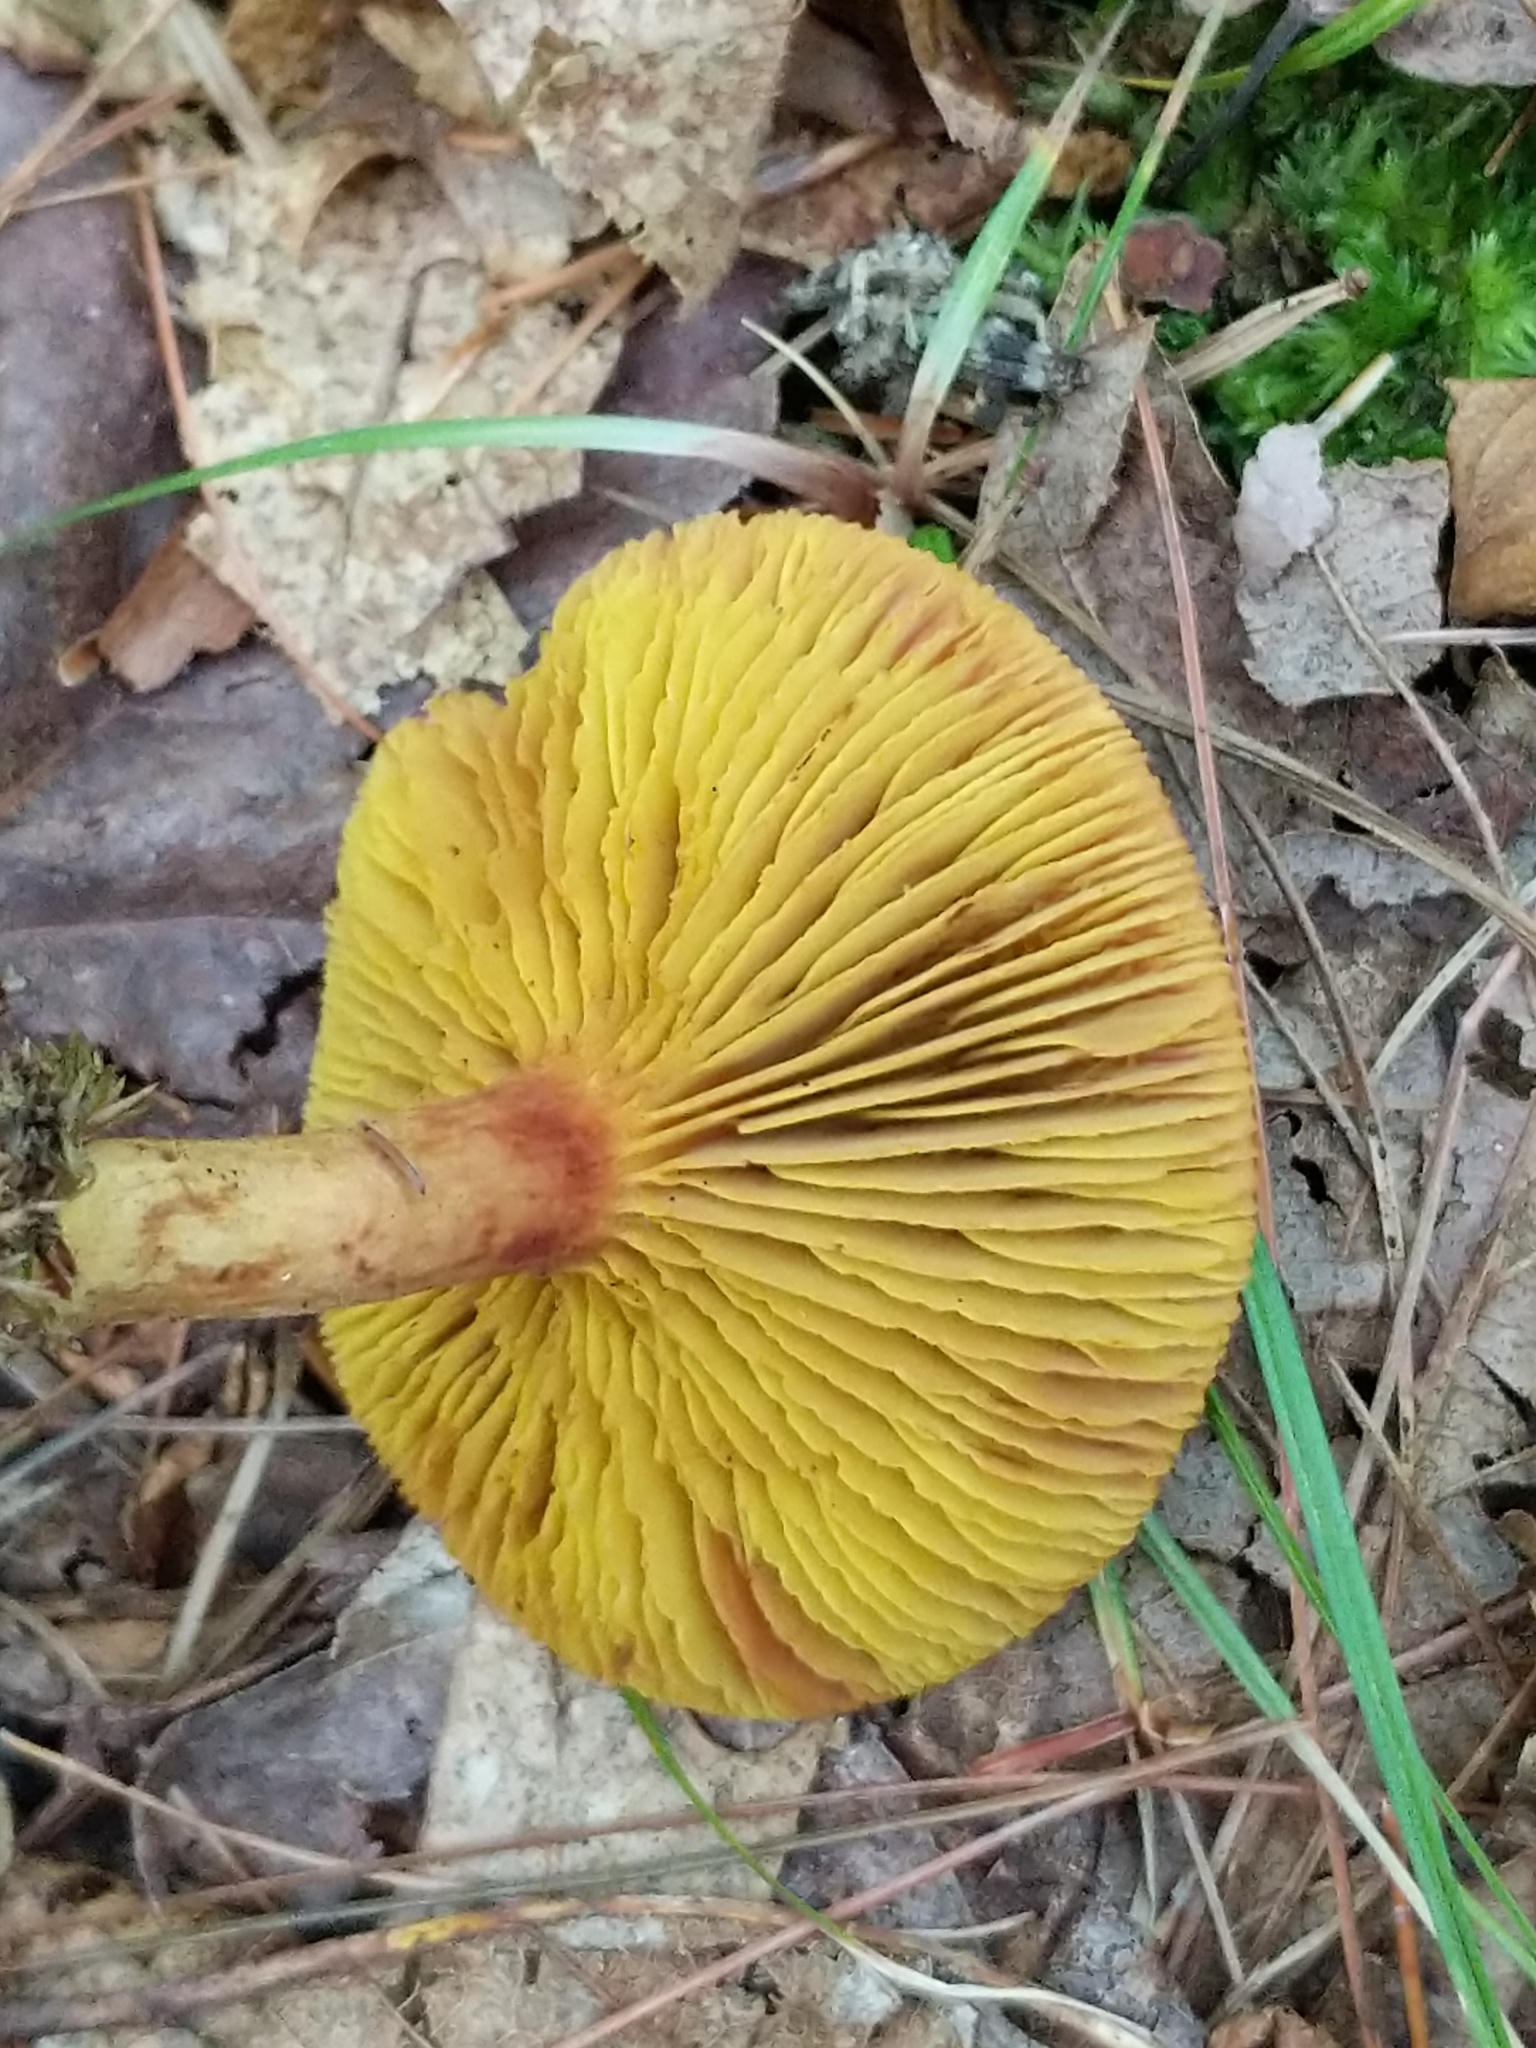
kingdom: Fungi
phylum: Basidiomycota
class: Agaricomycetes
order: Boletales
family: Boletaceae
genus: Phylloporus
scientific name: Phylloporus rhodoxanthus
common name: Golden gilled bolete
